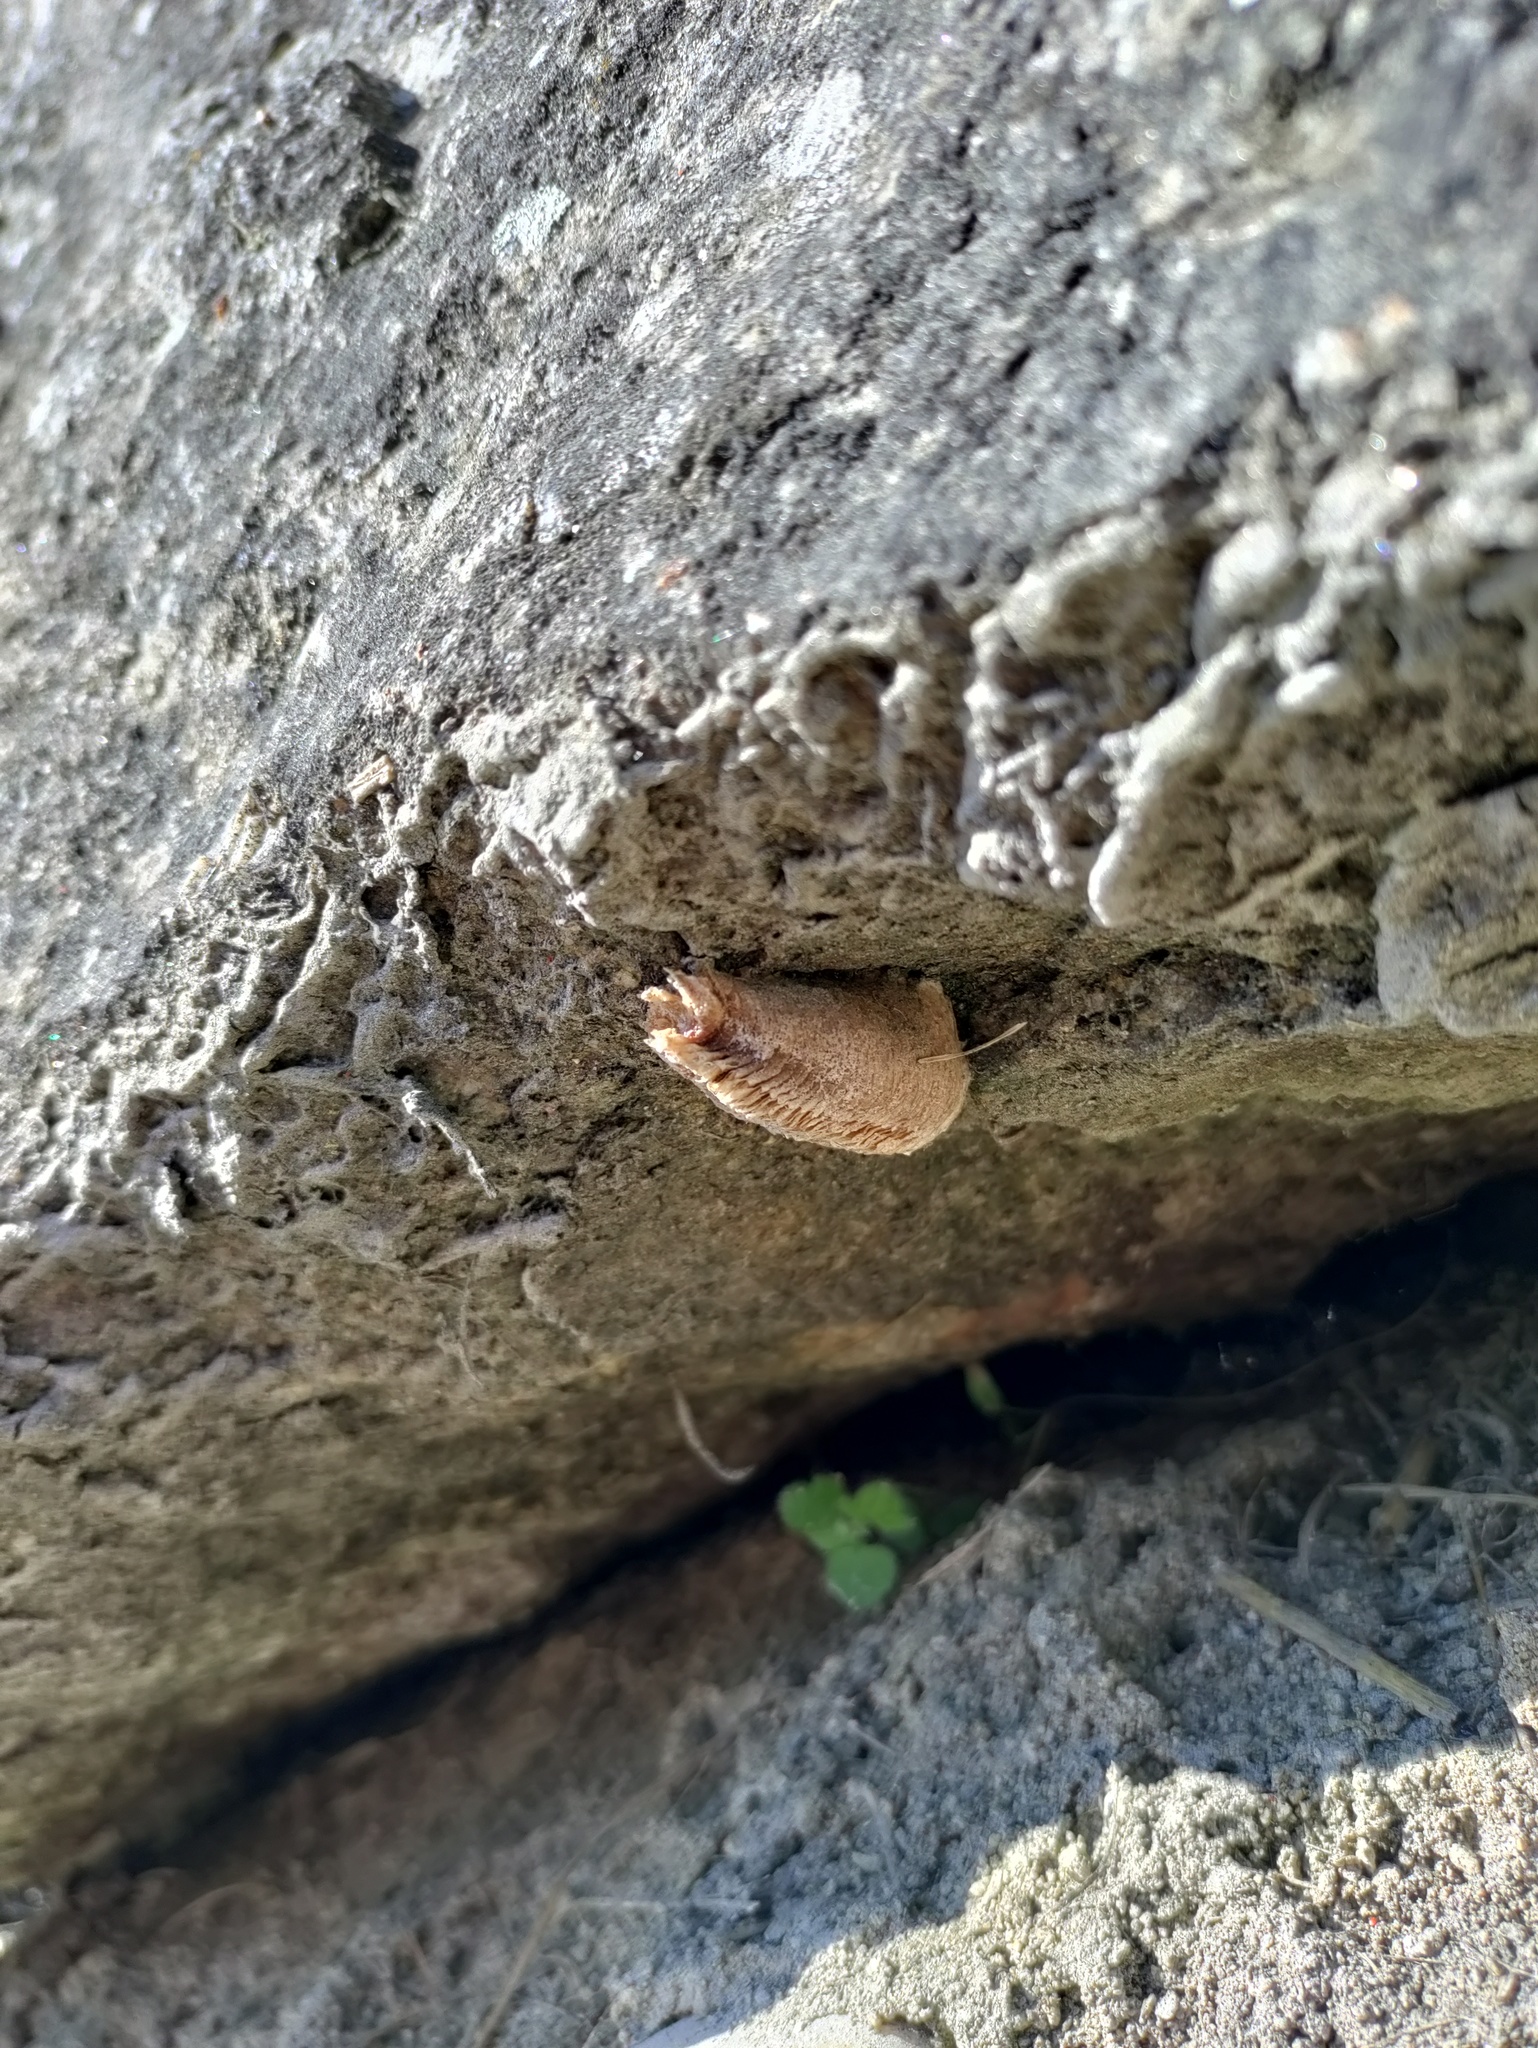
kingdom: Animalia
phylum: Arthropoda
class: Insecta
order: Mantodea
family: Mantidae
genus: Mantis
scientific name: Mantis religiosa
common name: Praying mantis
